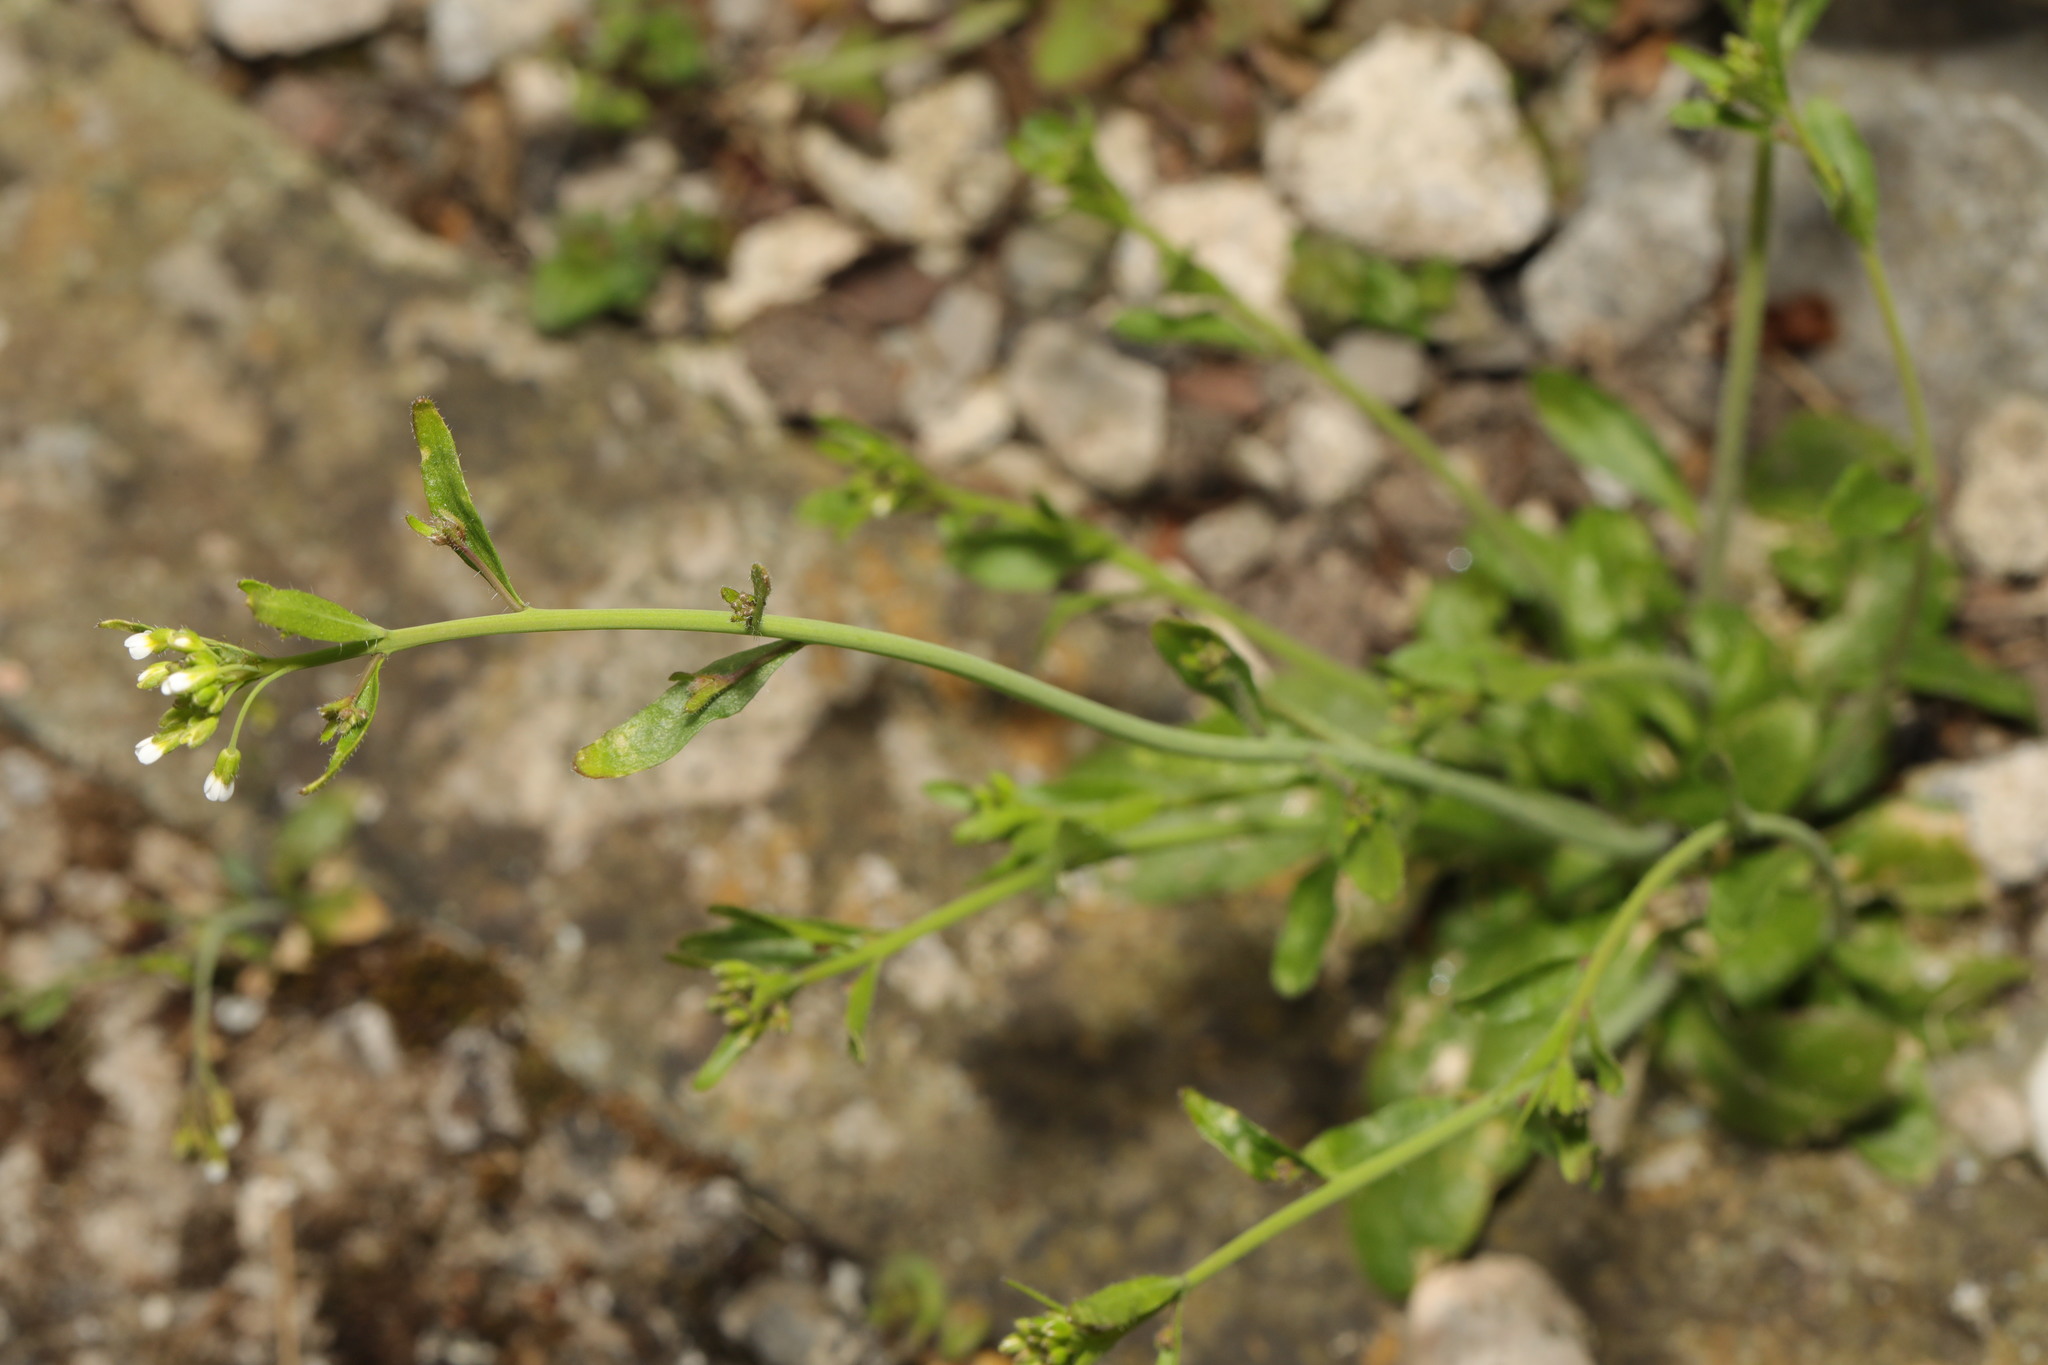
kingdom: Plantae
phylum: Tracheophyta
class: Magnoliopsida
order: Brassicales
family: Brassicaceae
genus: Capsella
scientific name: Capsella bursa-pastoris
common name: Shepherd's purse
